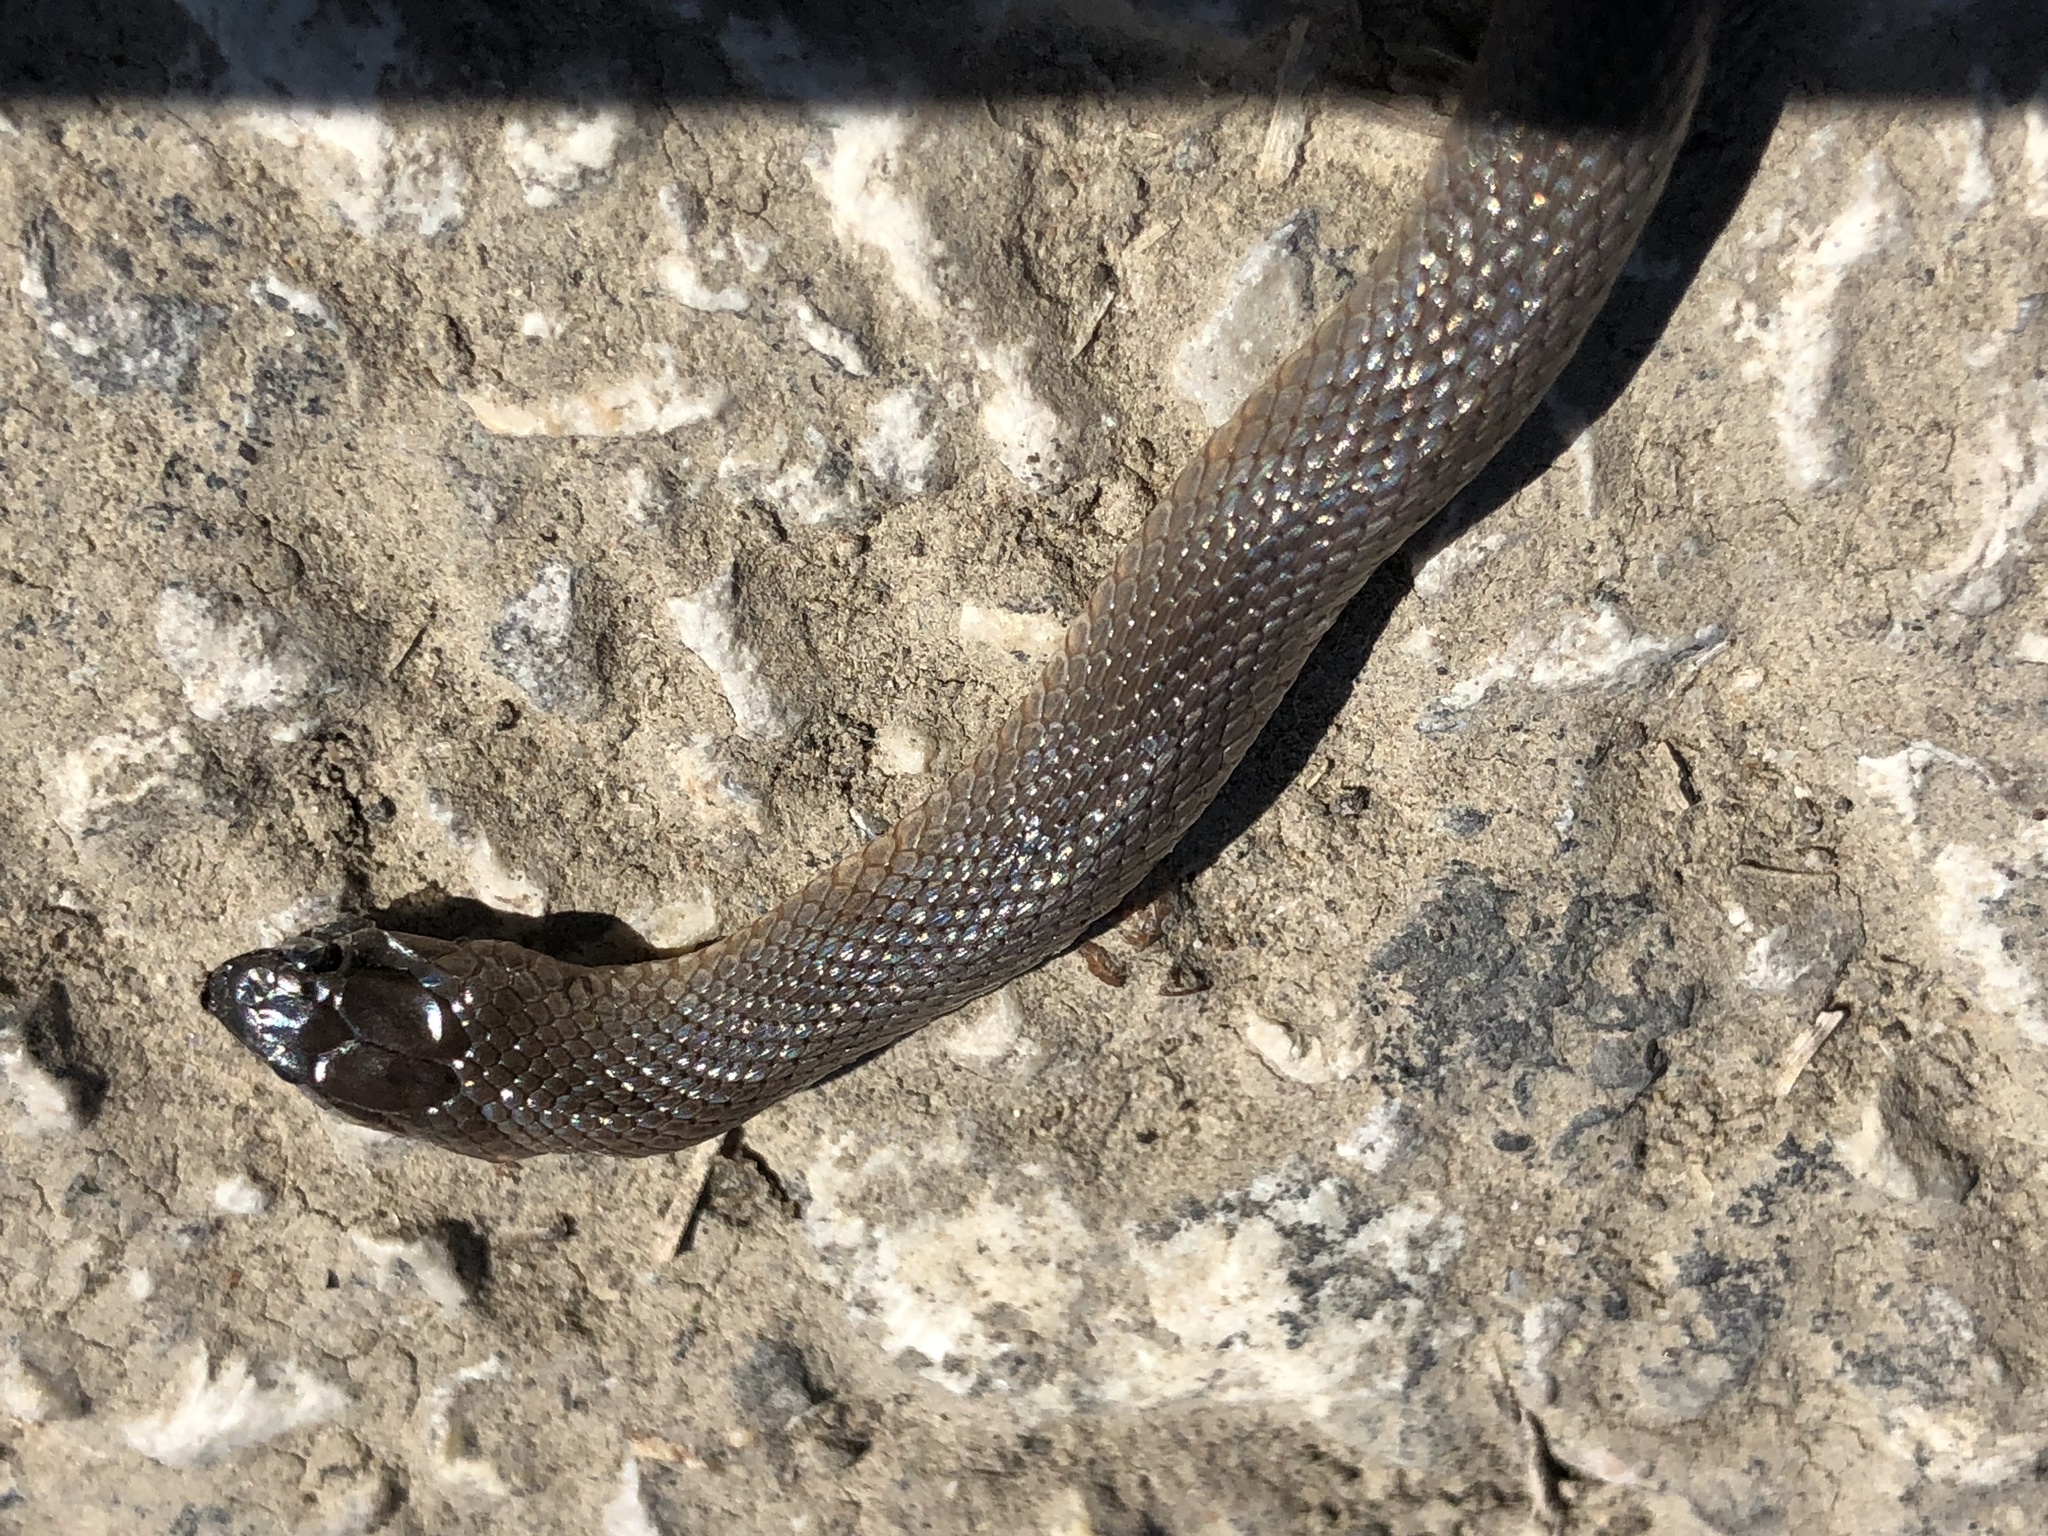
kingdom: Animalia
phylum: Chordata
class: Squamata
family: Colubridae
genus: Haldea
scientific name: Haldea striatula
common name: Rough earth snake
